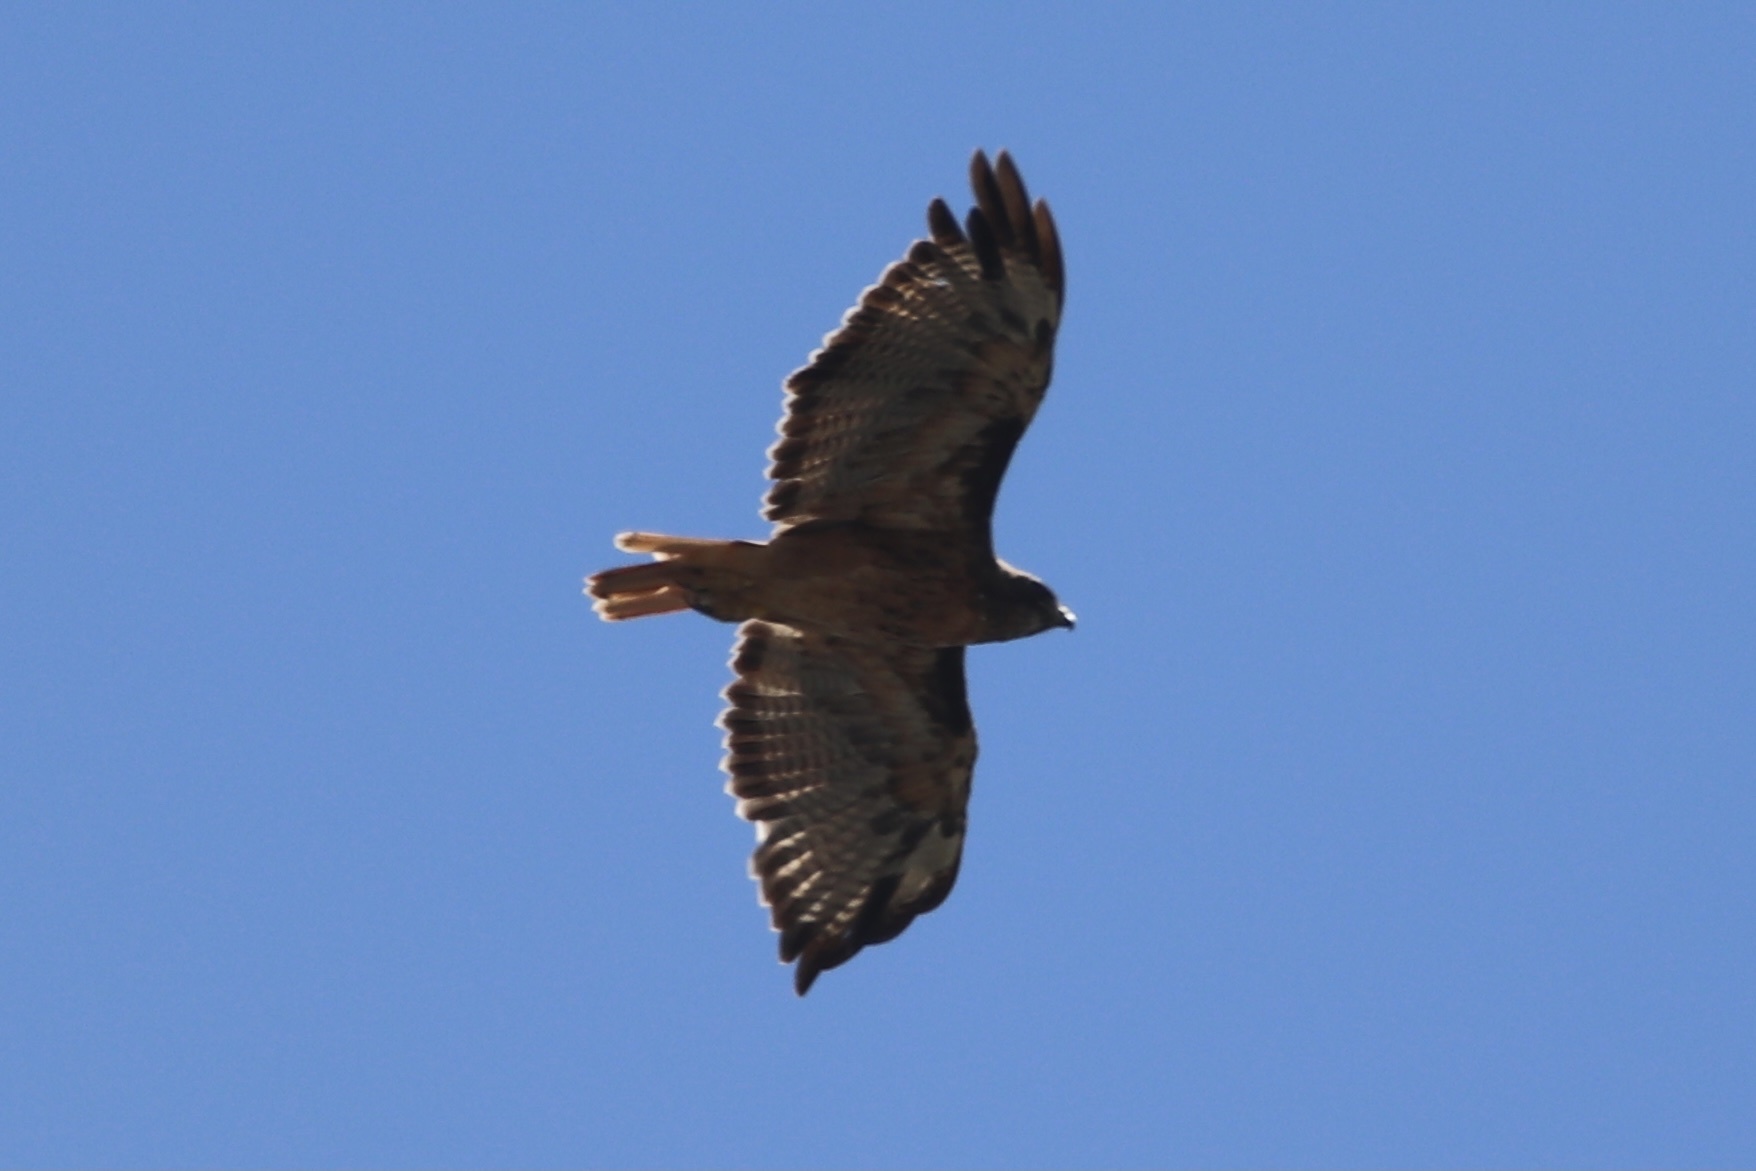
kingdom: Animalia
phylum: Chordata
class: Aves
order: Accipitriformes
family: Accipitridae
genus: Buteo
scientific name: Buteo jamaicensis
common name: Red-tailed hawk
